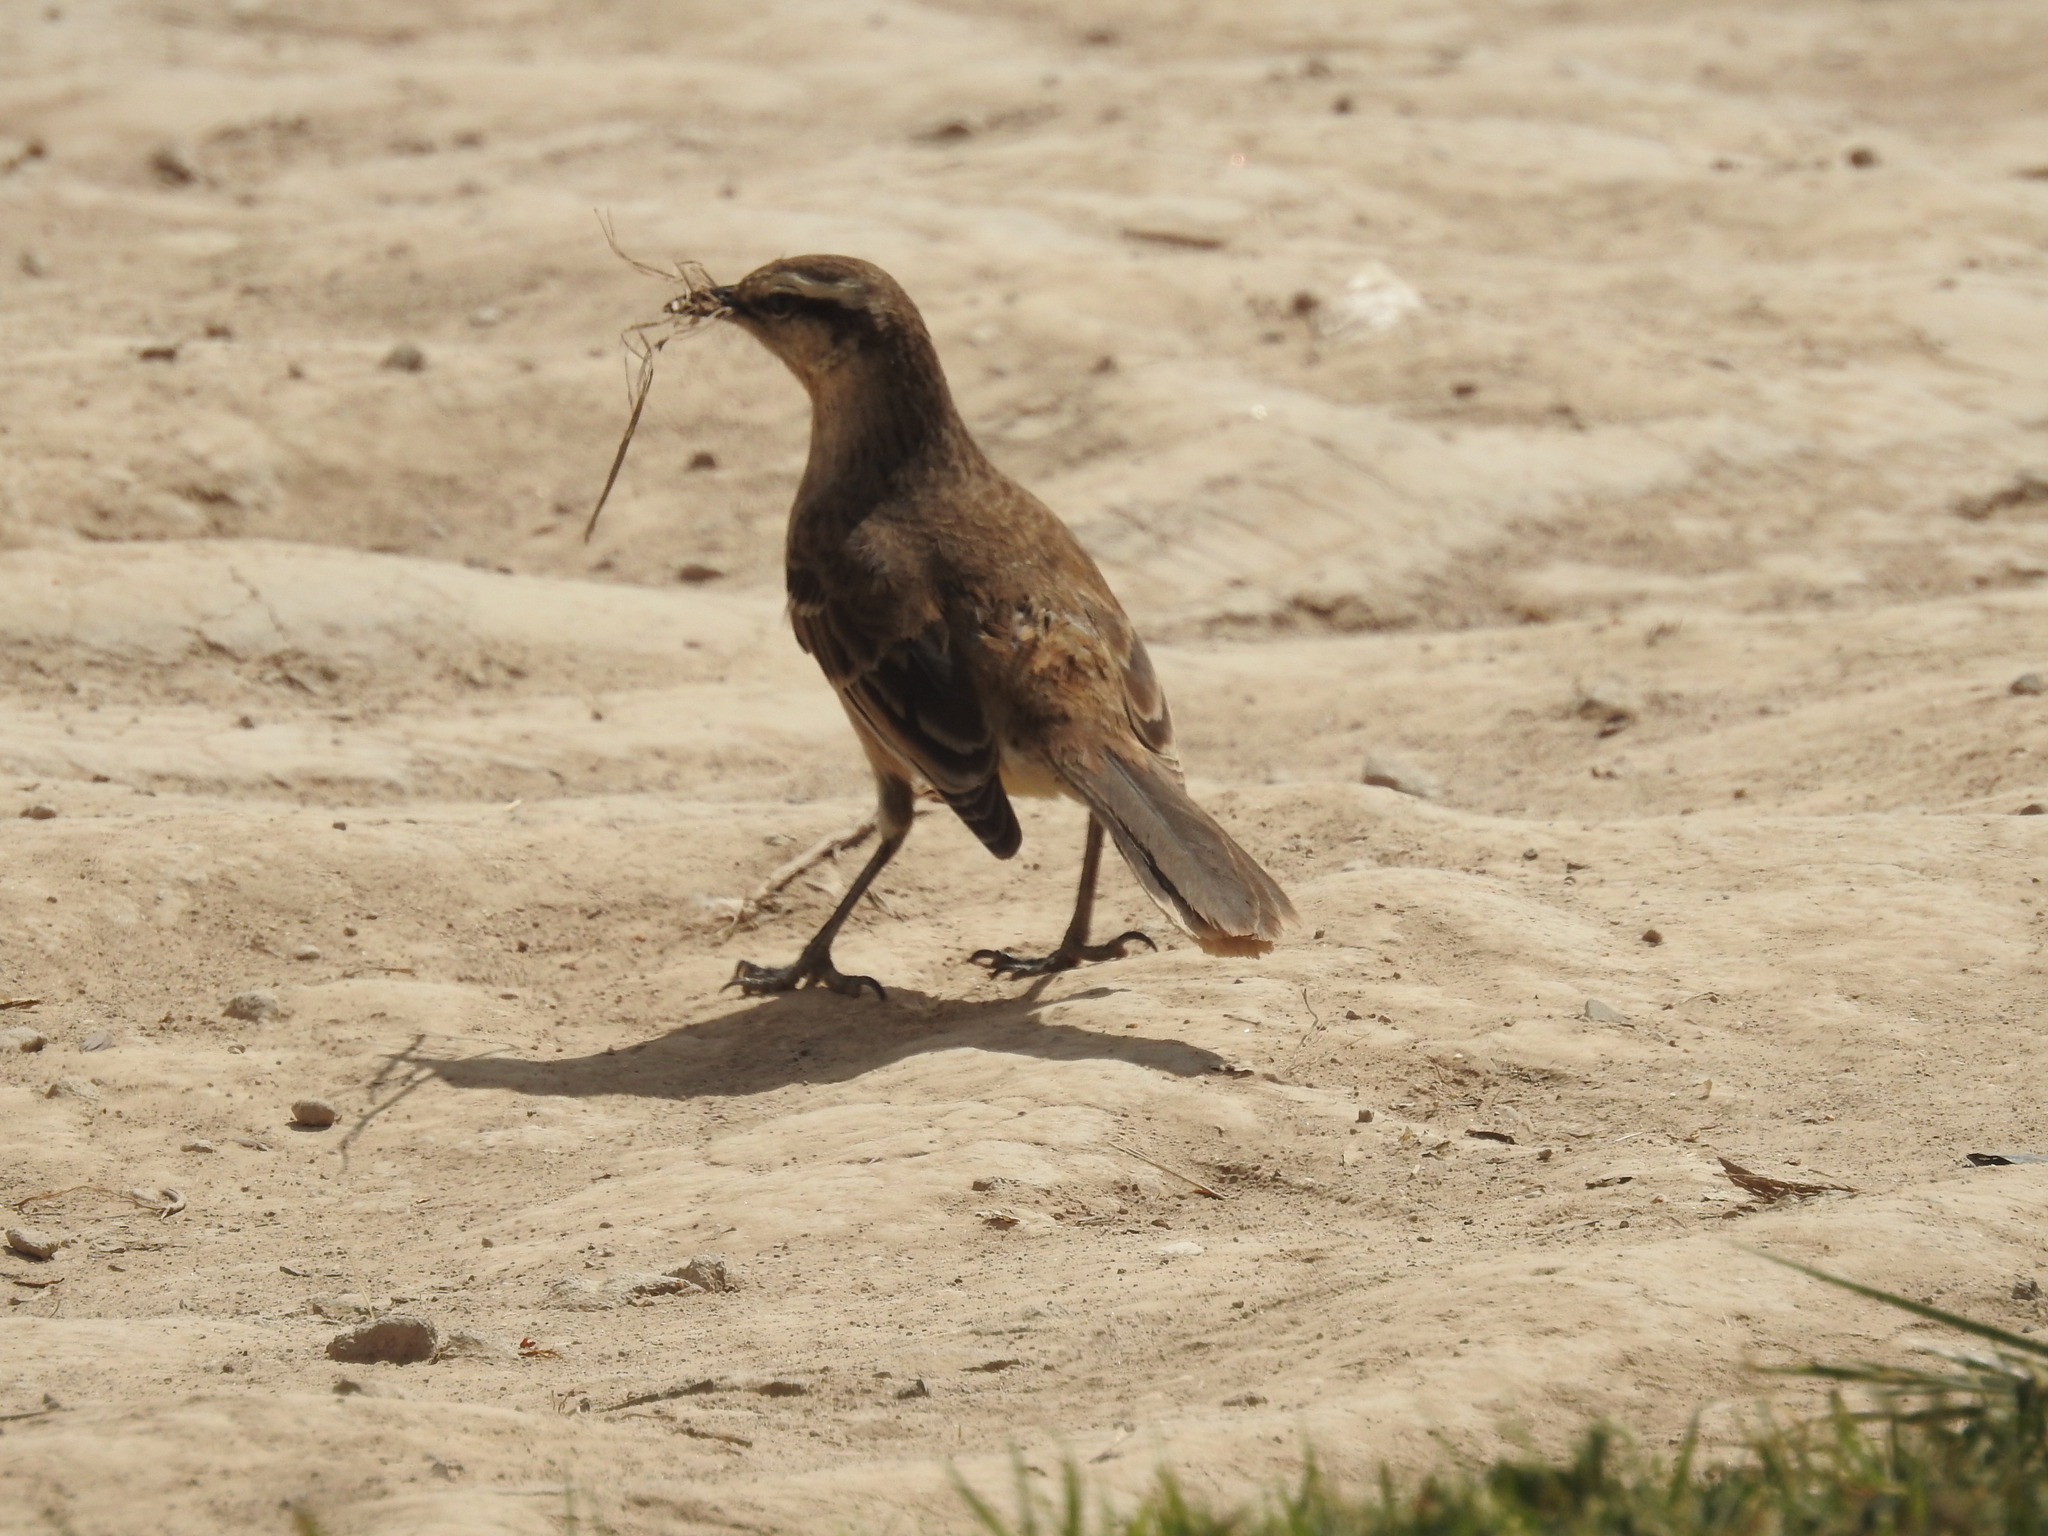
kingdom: Animalia
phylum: Chordata
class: Aves
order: Passeriformes
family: Mimidae
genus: Mimus
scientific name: Mimus saturninus
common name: Chalk-browed mockingbird
